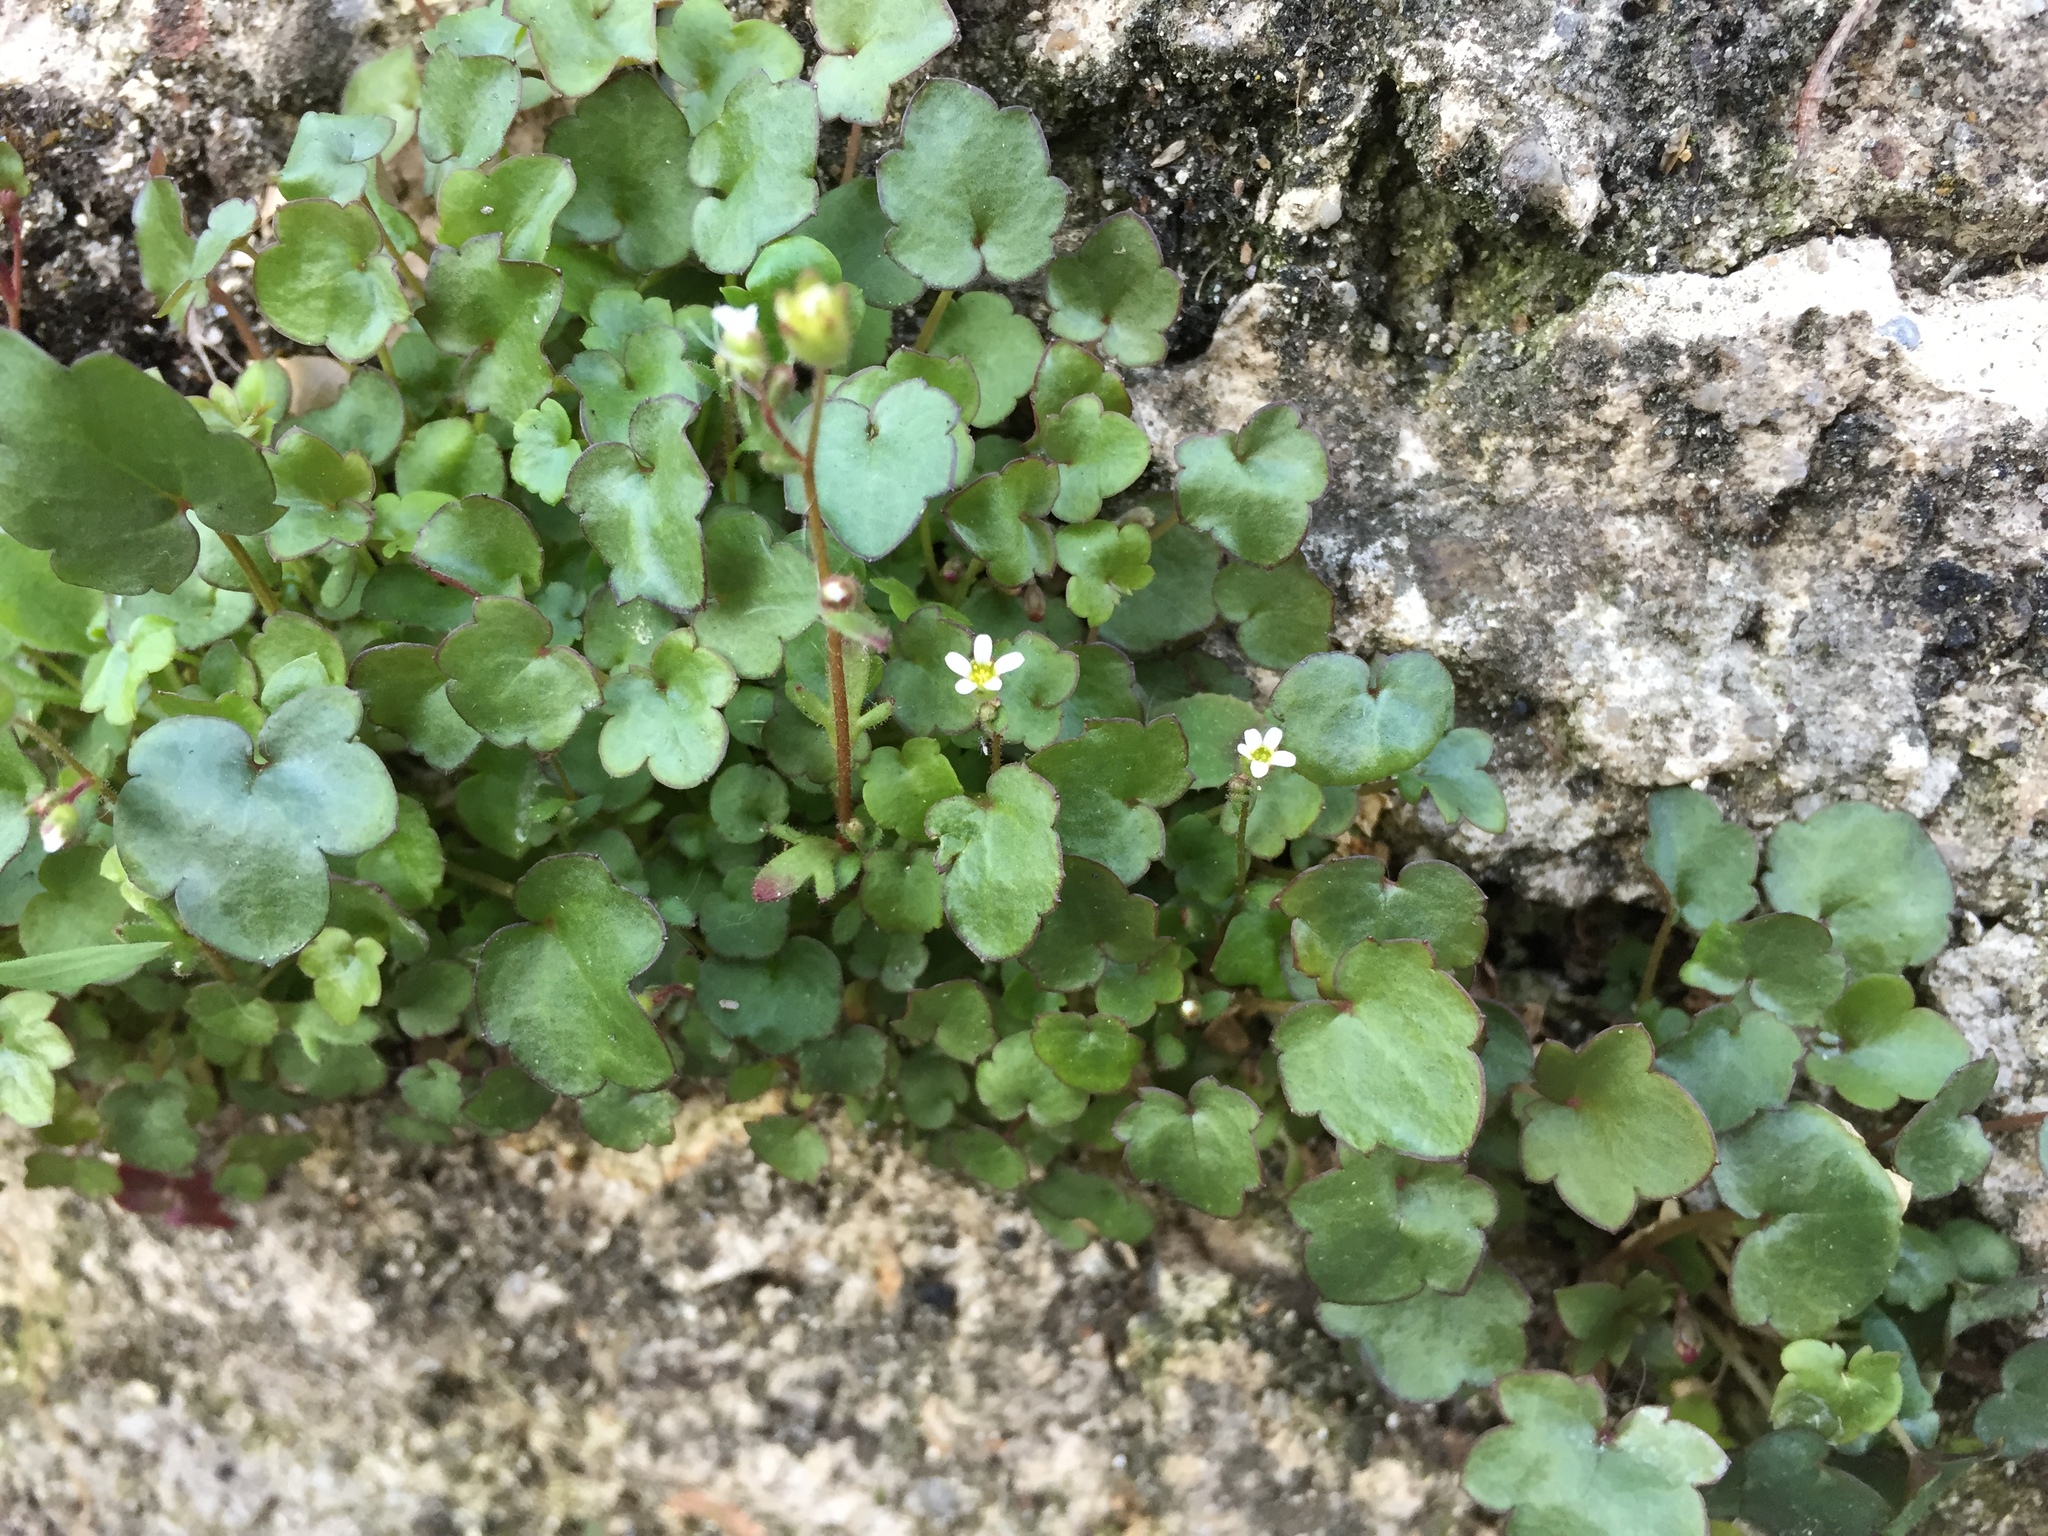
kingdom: Plantae
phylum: Tracheophyta
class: Magnoliopsida
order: Saxifragales
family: Saxifragaceae
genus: Saxifraga
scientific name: Saxifraga tridactylites
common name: Rue-leaved saxifrage
